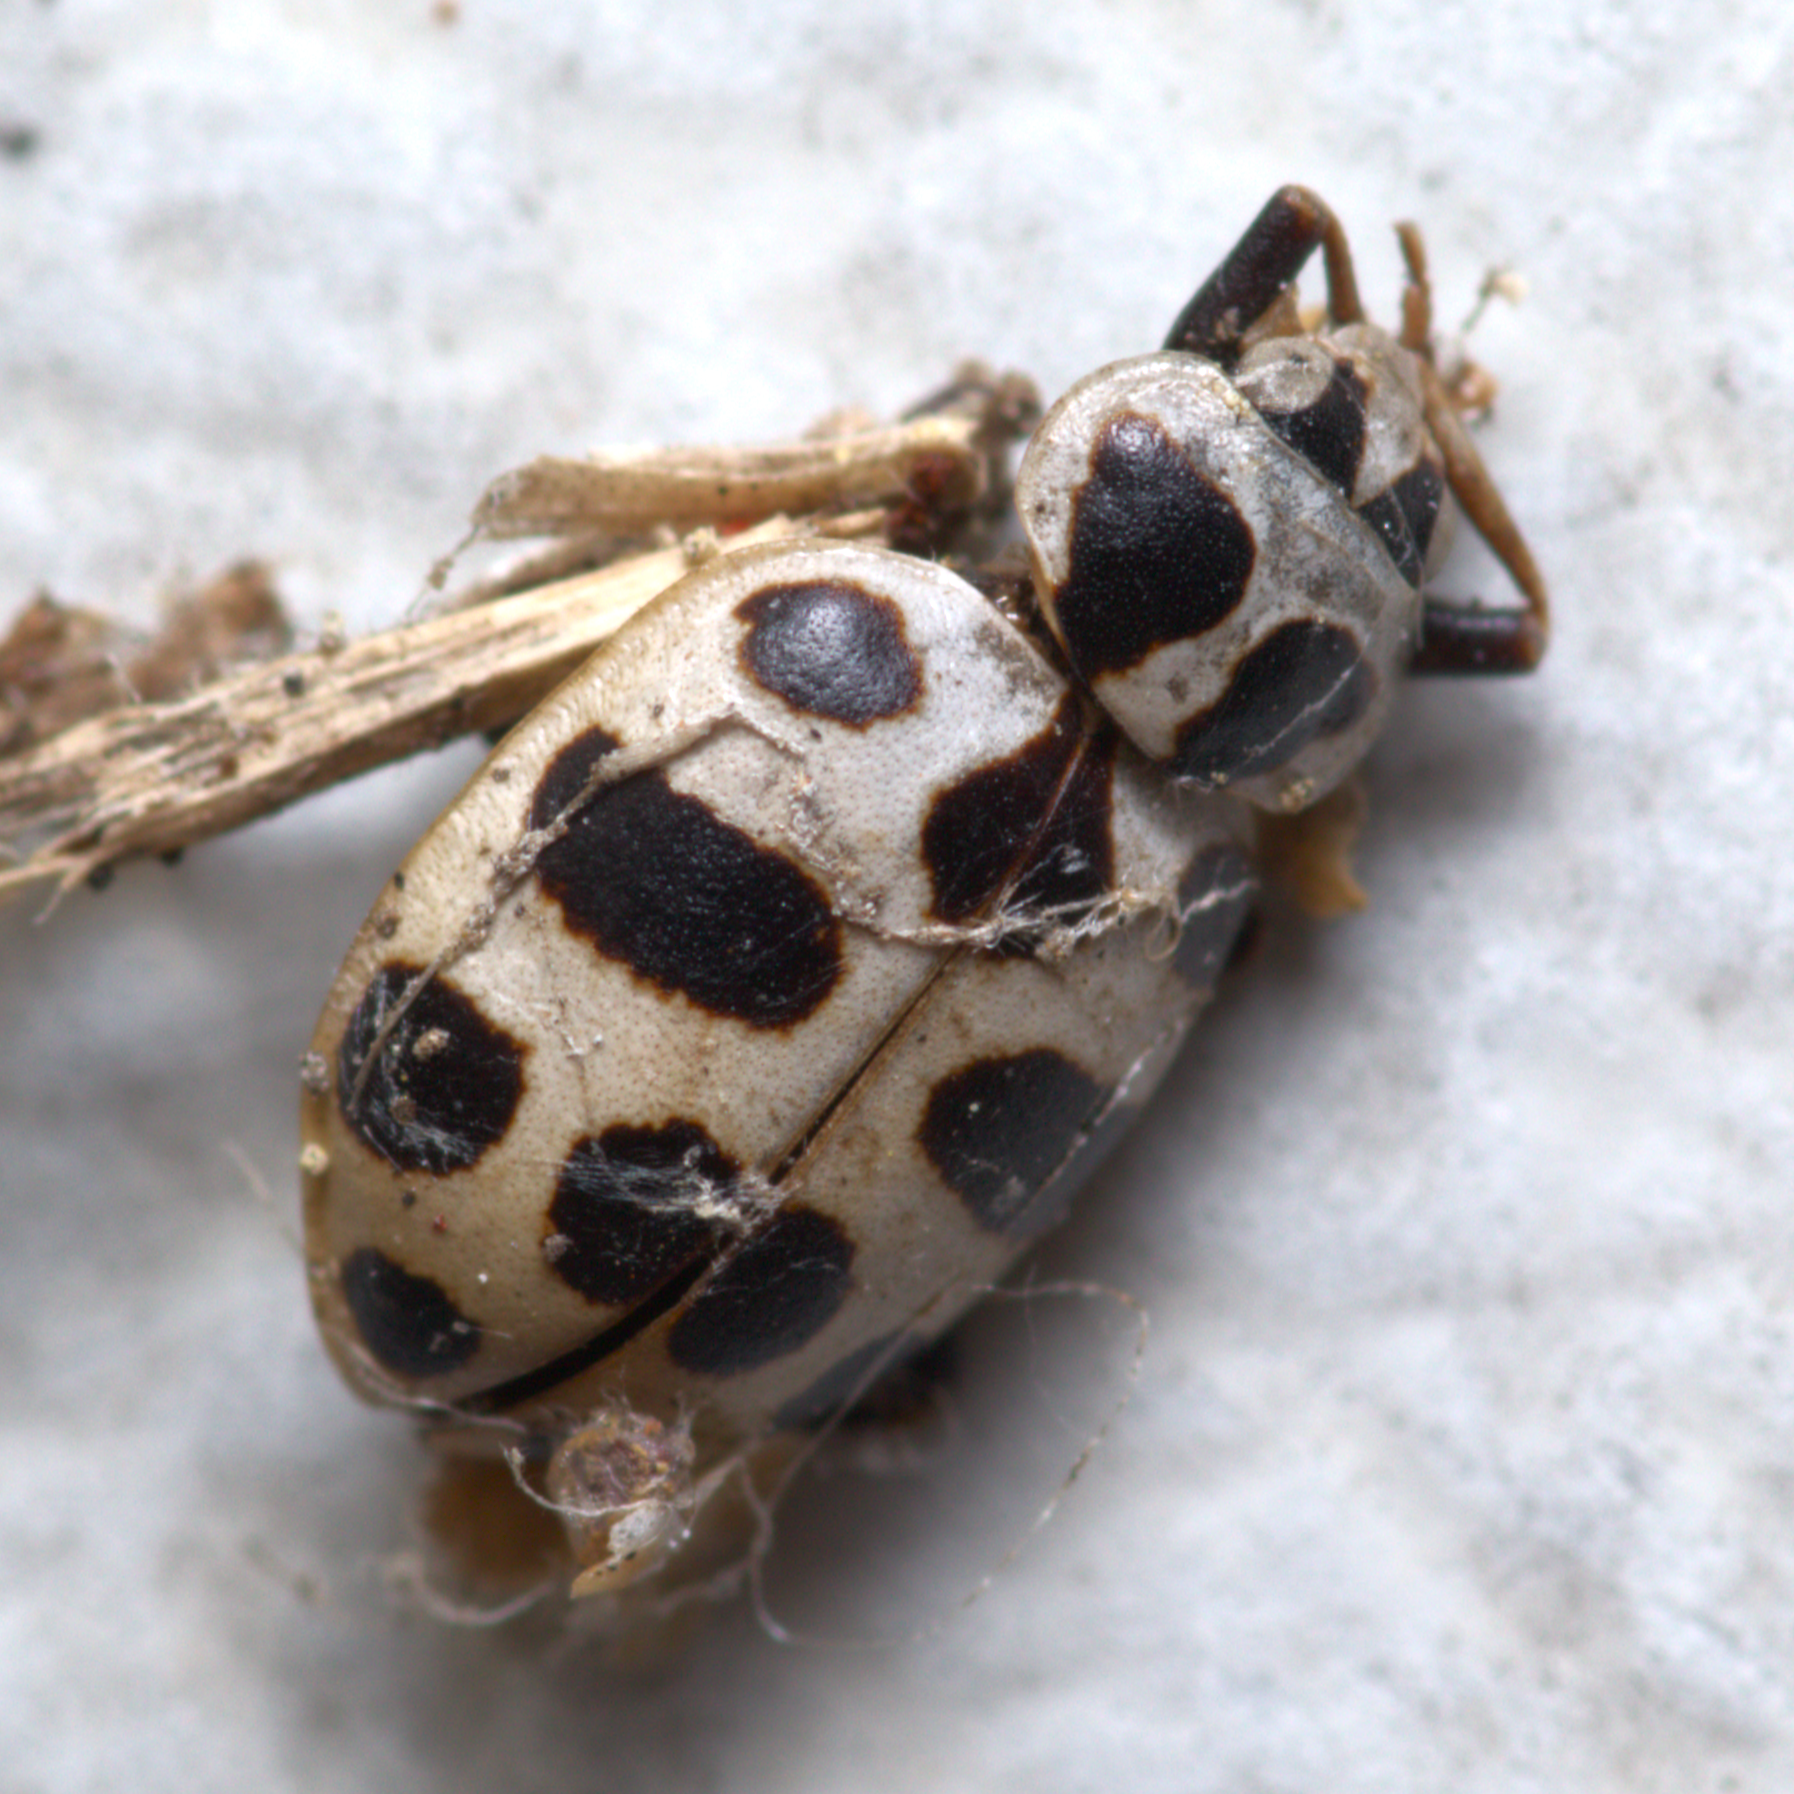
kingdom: Animalia
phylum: Arthropoda
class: Insecta
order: Coleoptera
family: Coccinellidae
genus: Coleomegilla
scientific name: Coleomegilla maculata
